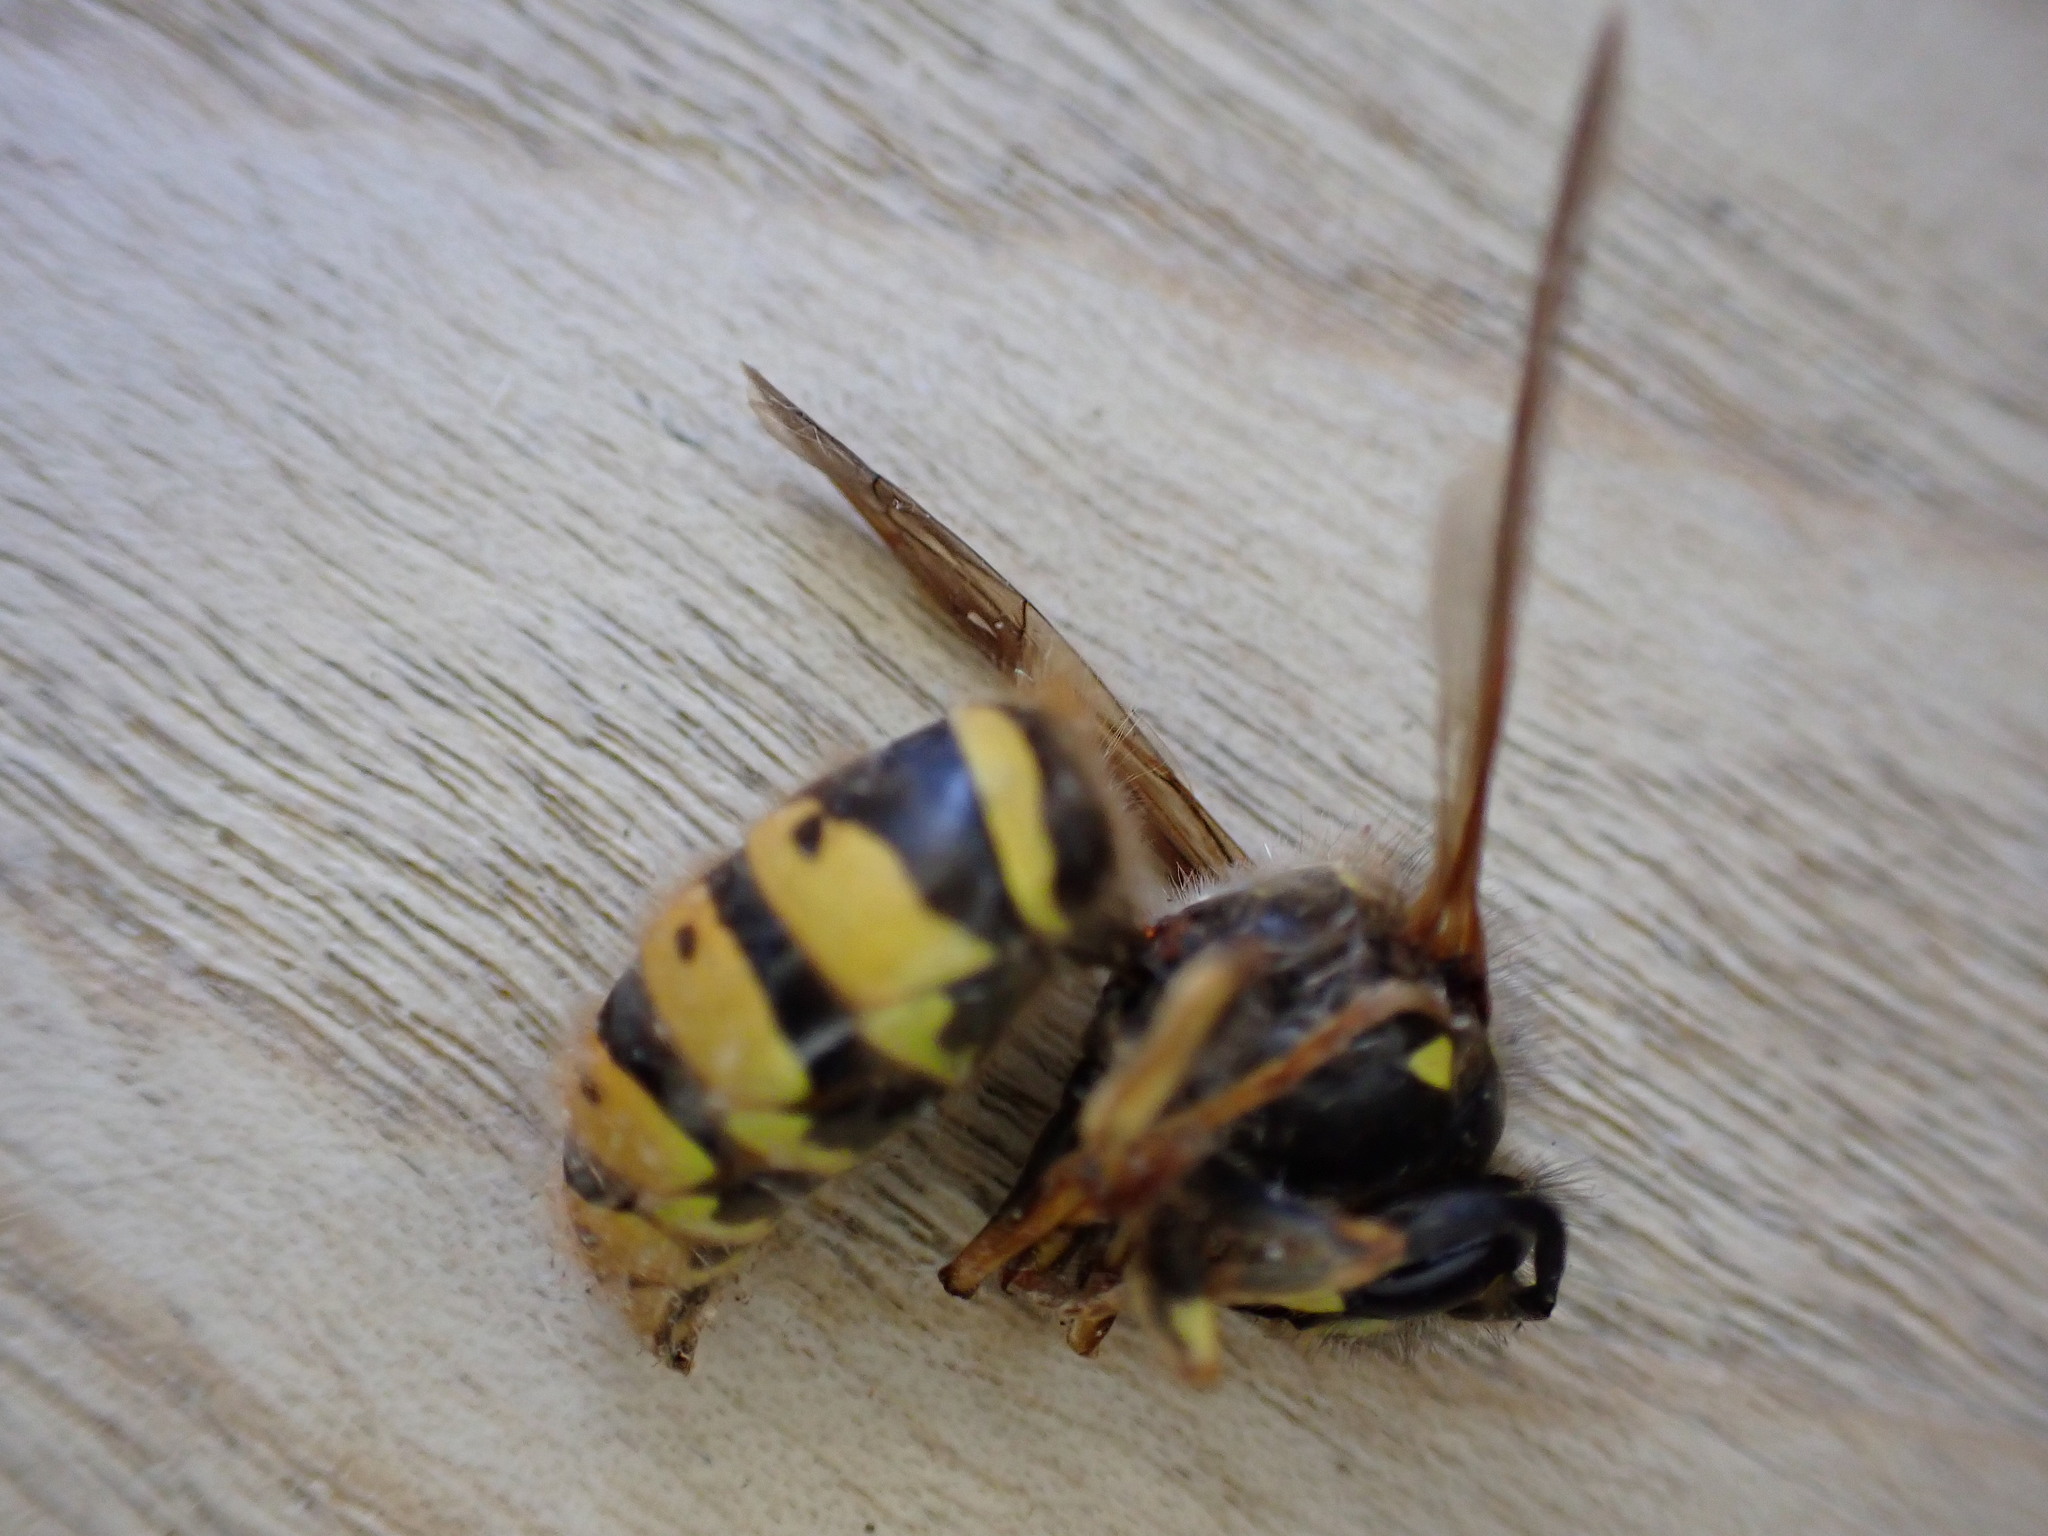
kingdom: Animalia
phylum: Arthropoda
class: Insecta
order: Hymenoptera
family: Vespidae
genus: Vespula
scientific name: Vespula vulgaris
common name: Common wasp
